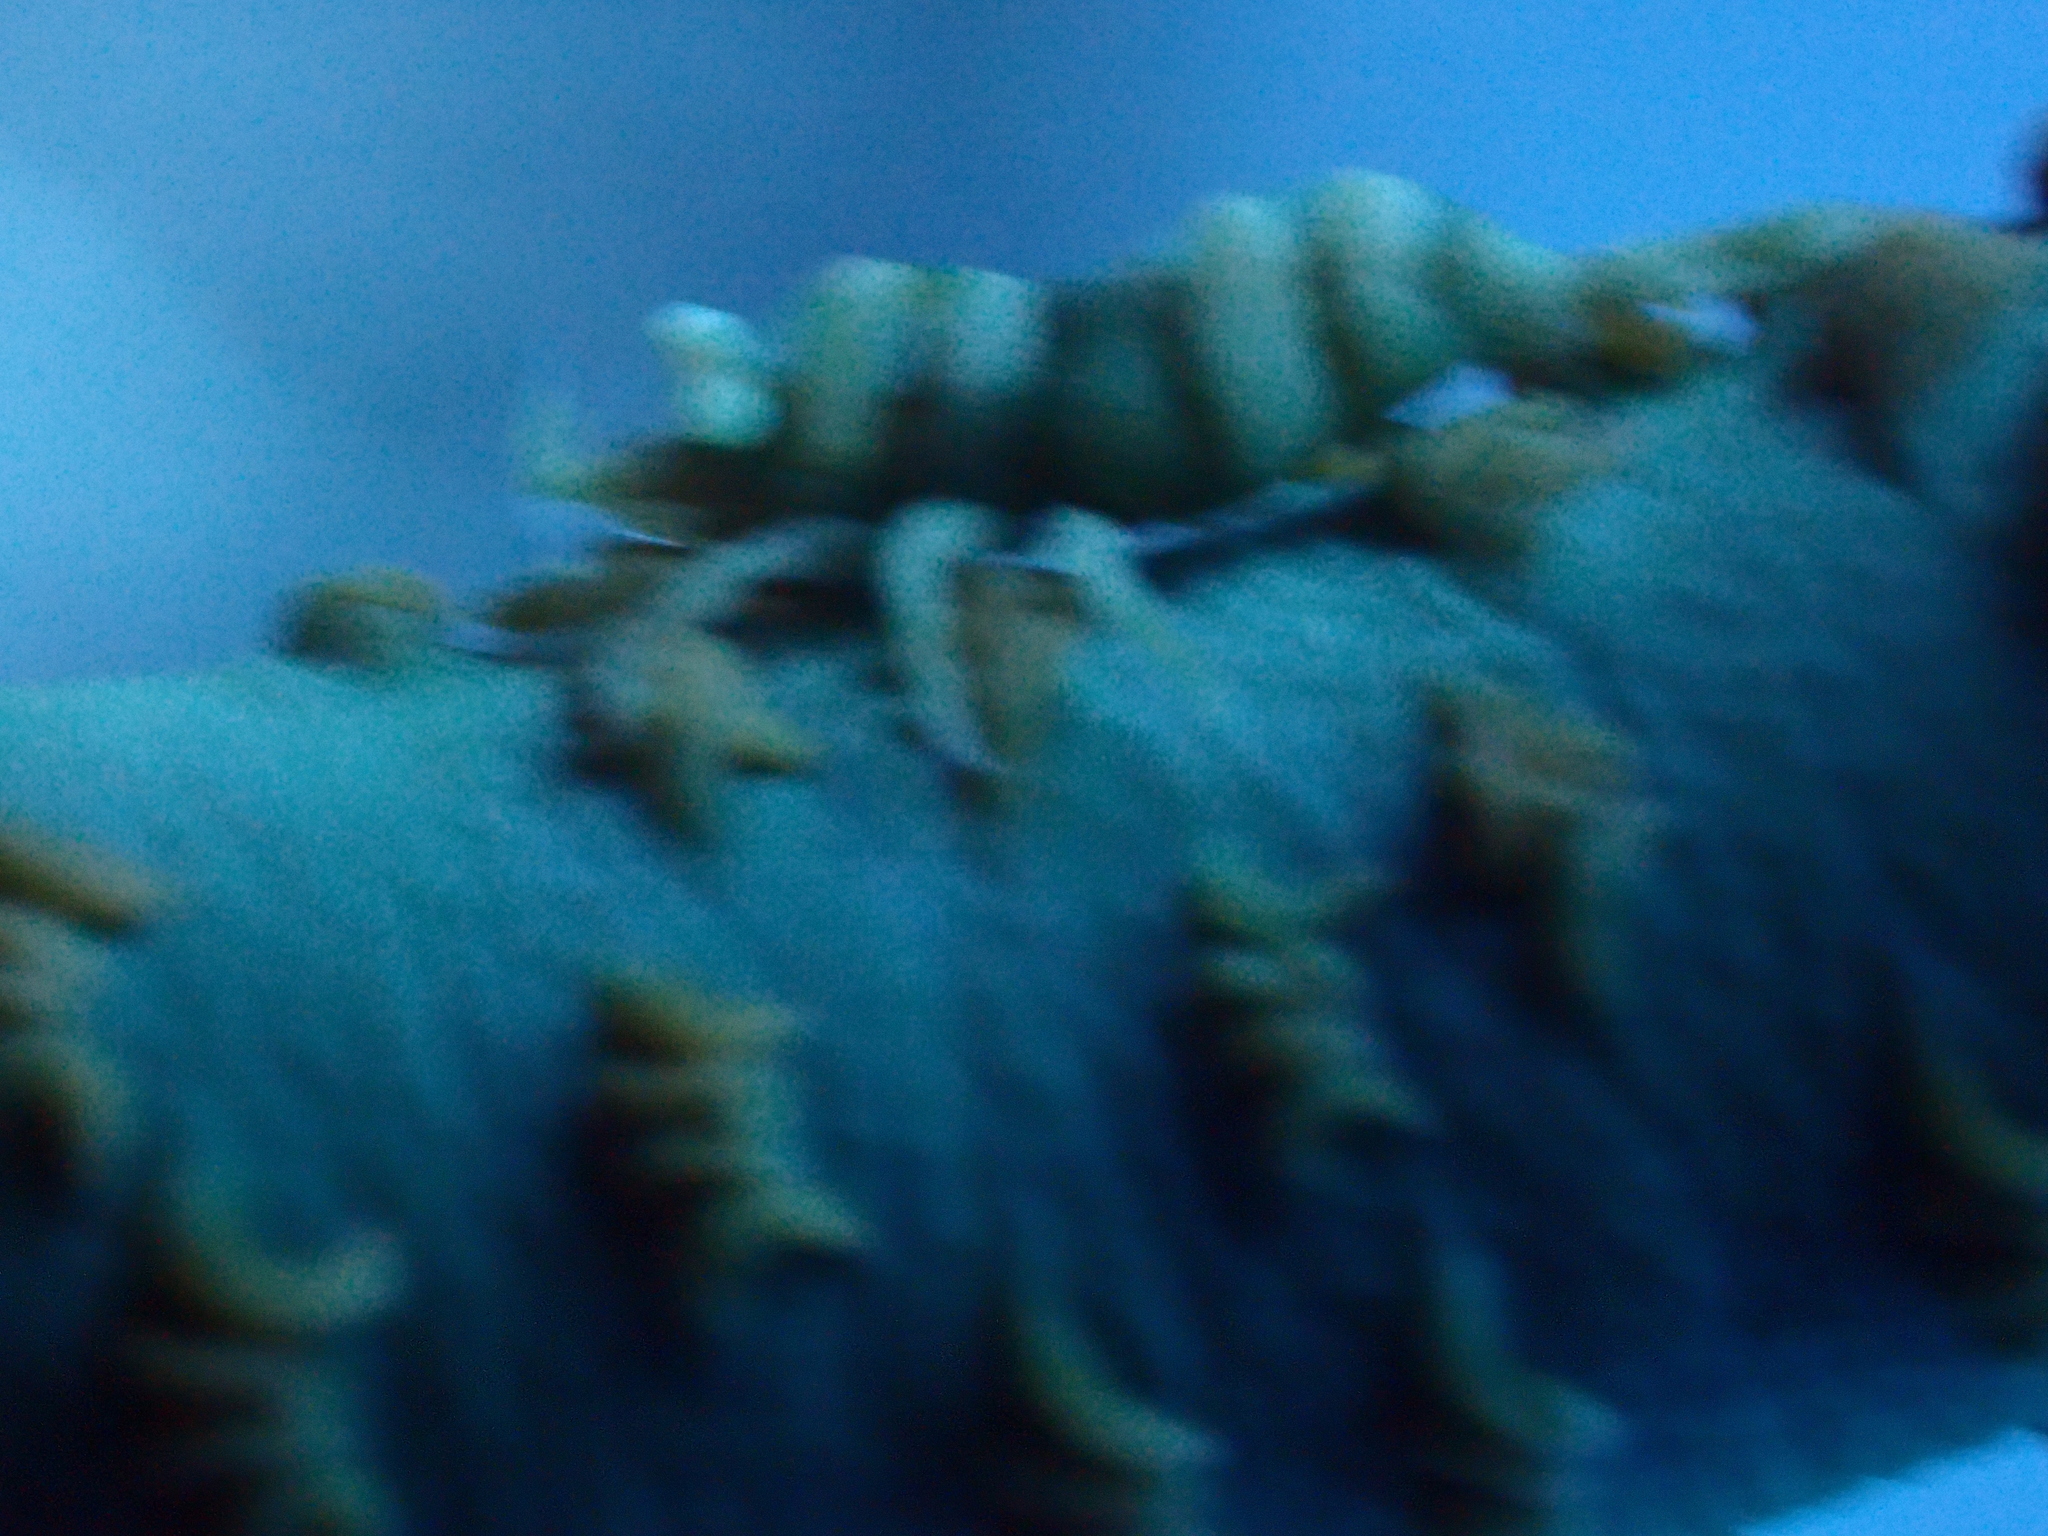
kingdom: Animalia
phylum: Arthropoda
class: Malacostraca
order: Decapoda
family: Palaemonidae
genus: Pontonides
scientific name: Pontonides ankeri
